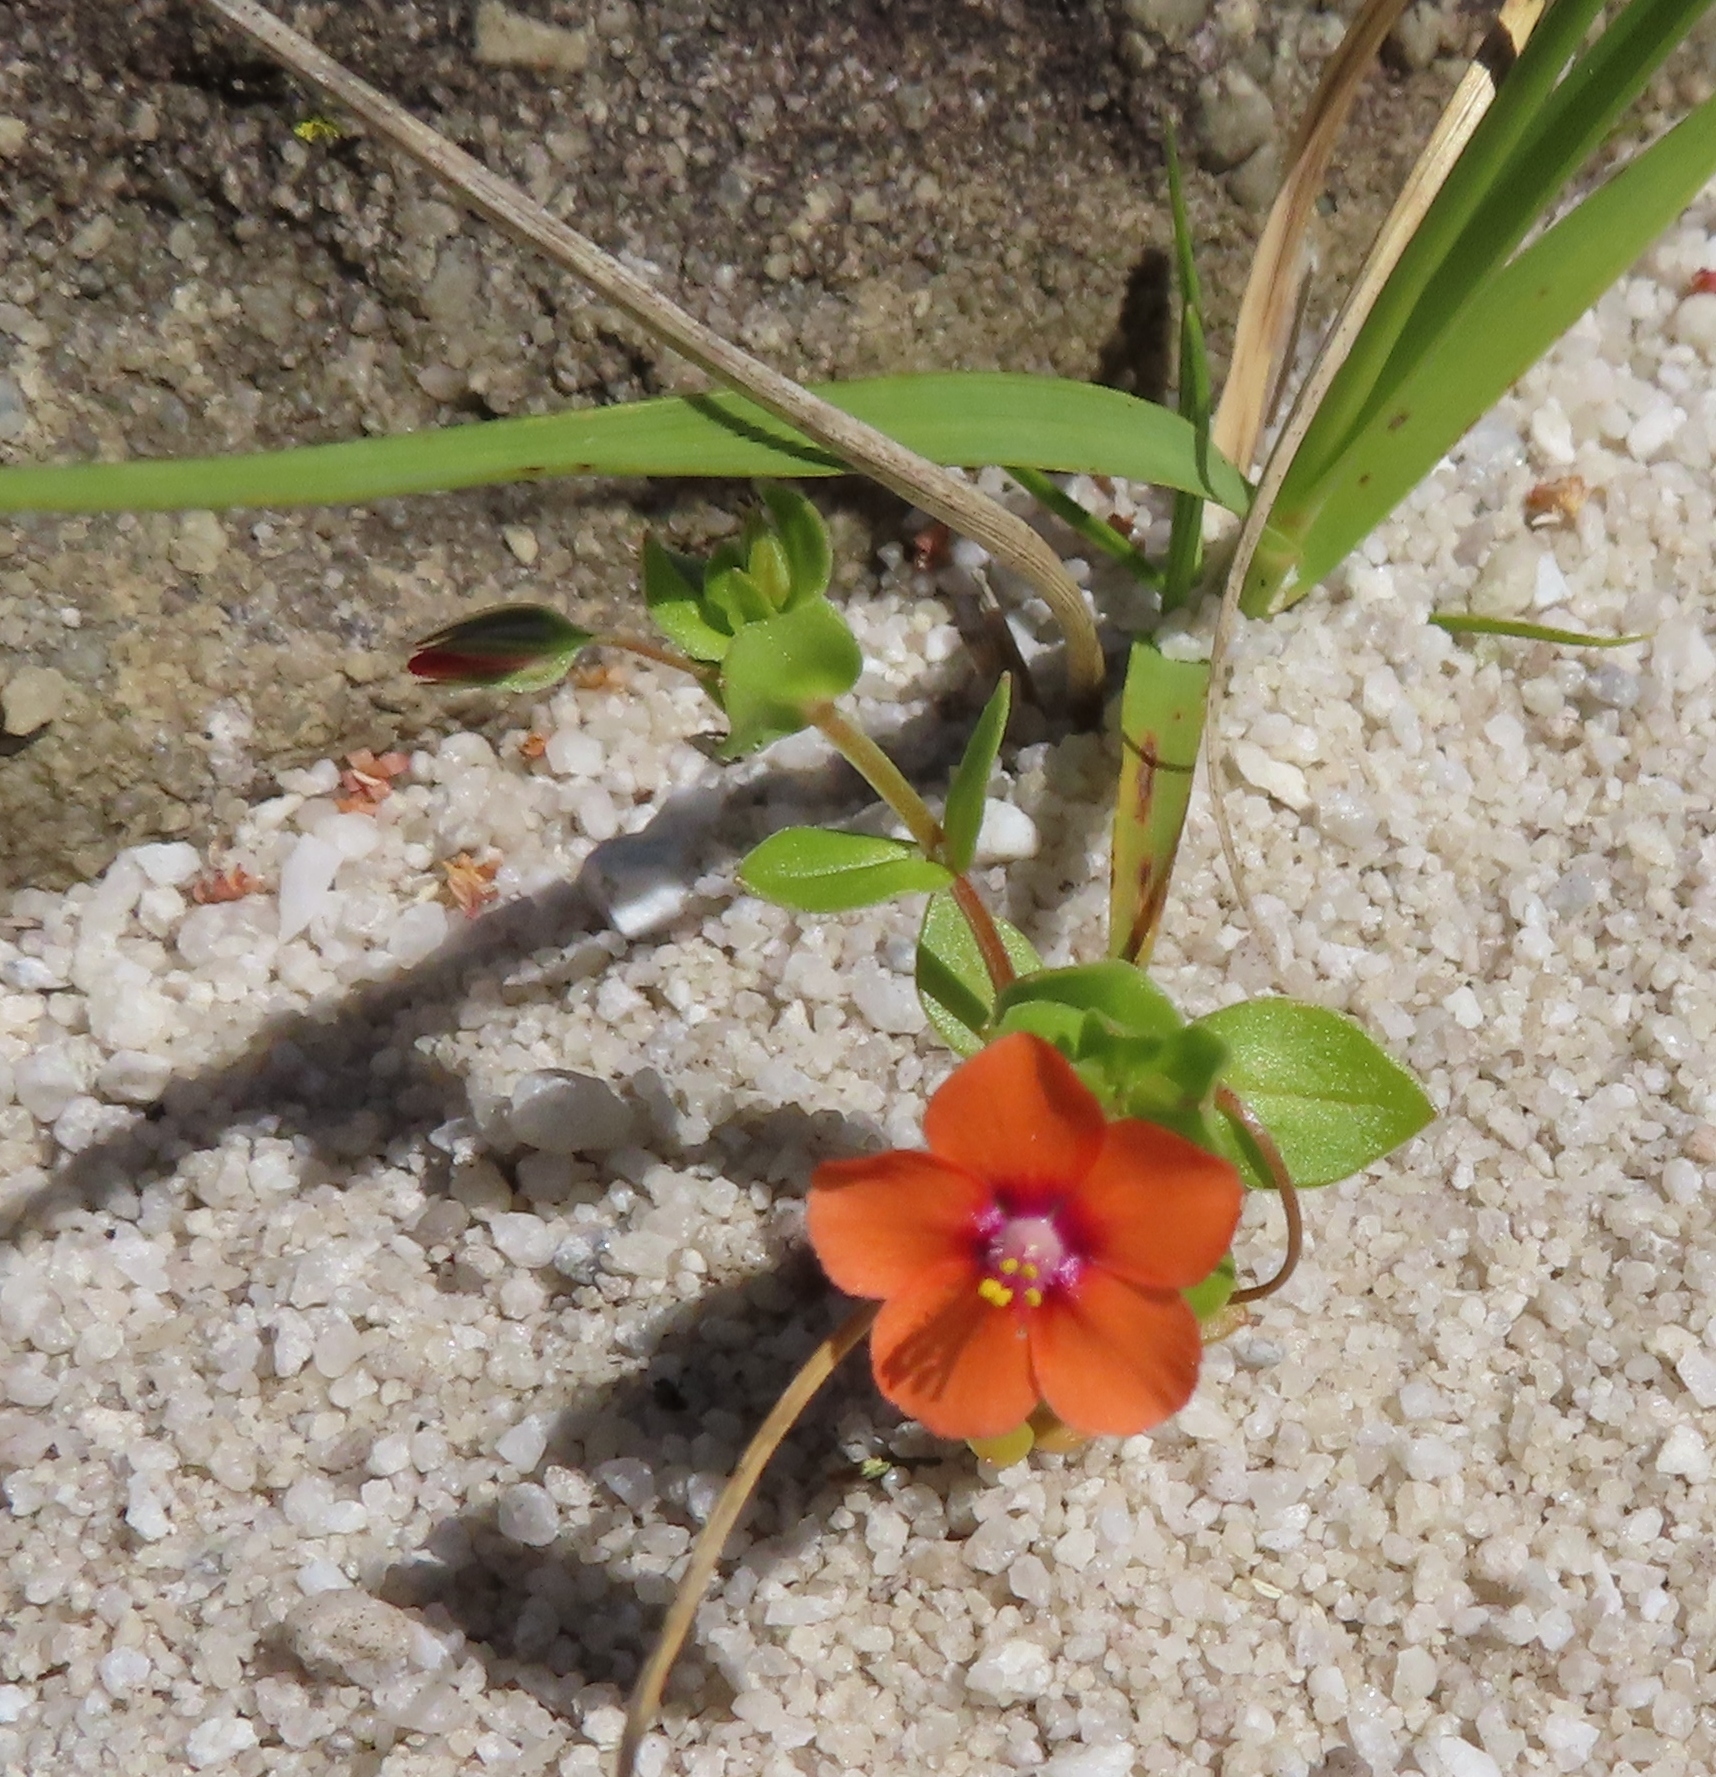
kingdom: Plantae
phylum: Tracheophyta
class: Magnoliopsida
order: Ericales
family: Primulaceae
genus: Lysimachia
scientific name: Lysimachia arvensis
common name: Scarlet pimpernel
